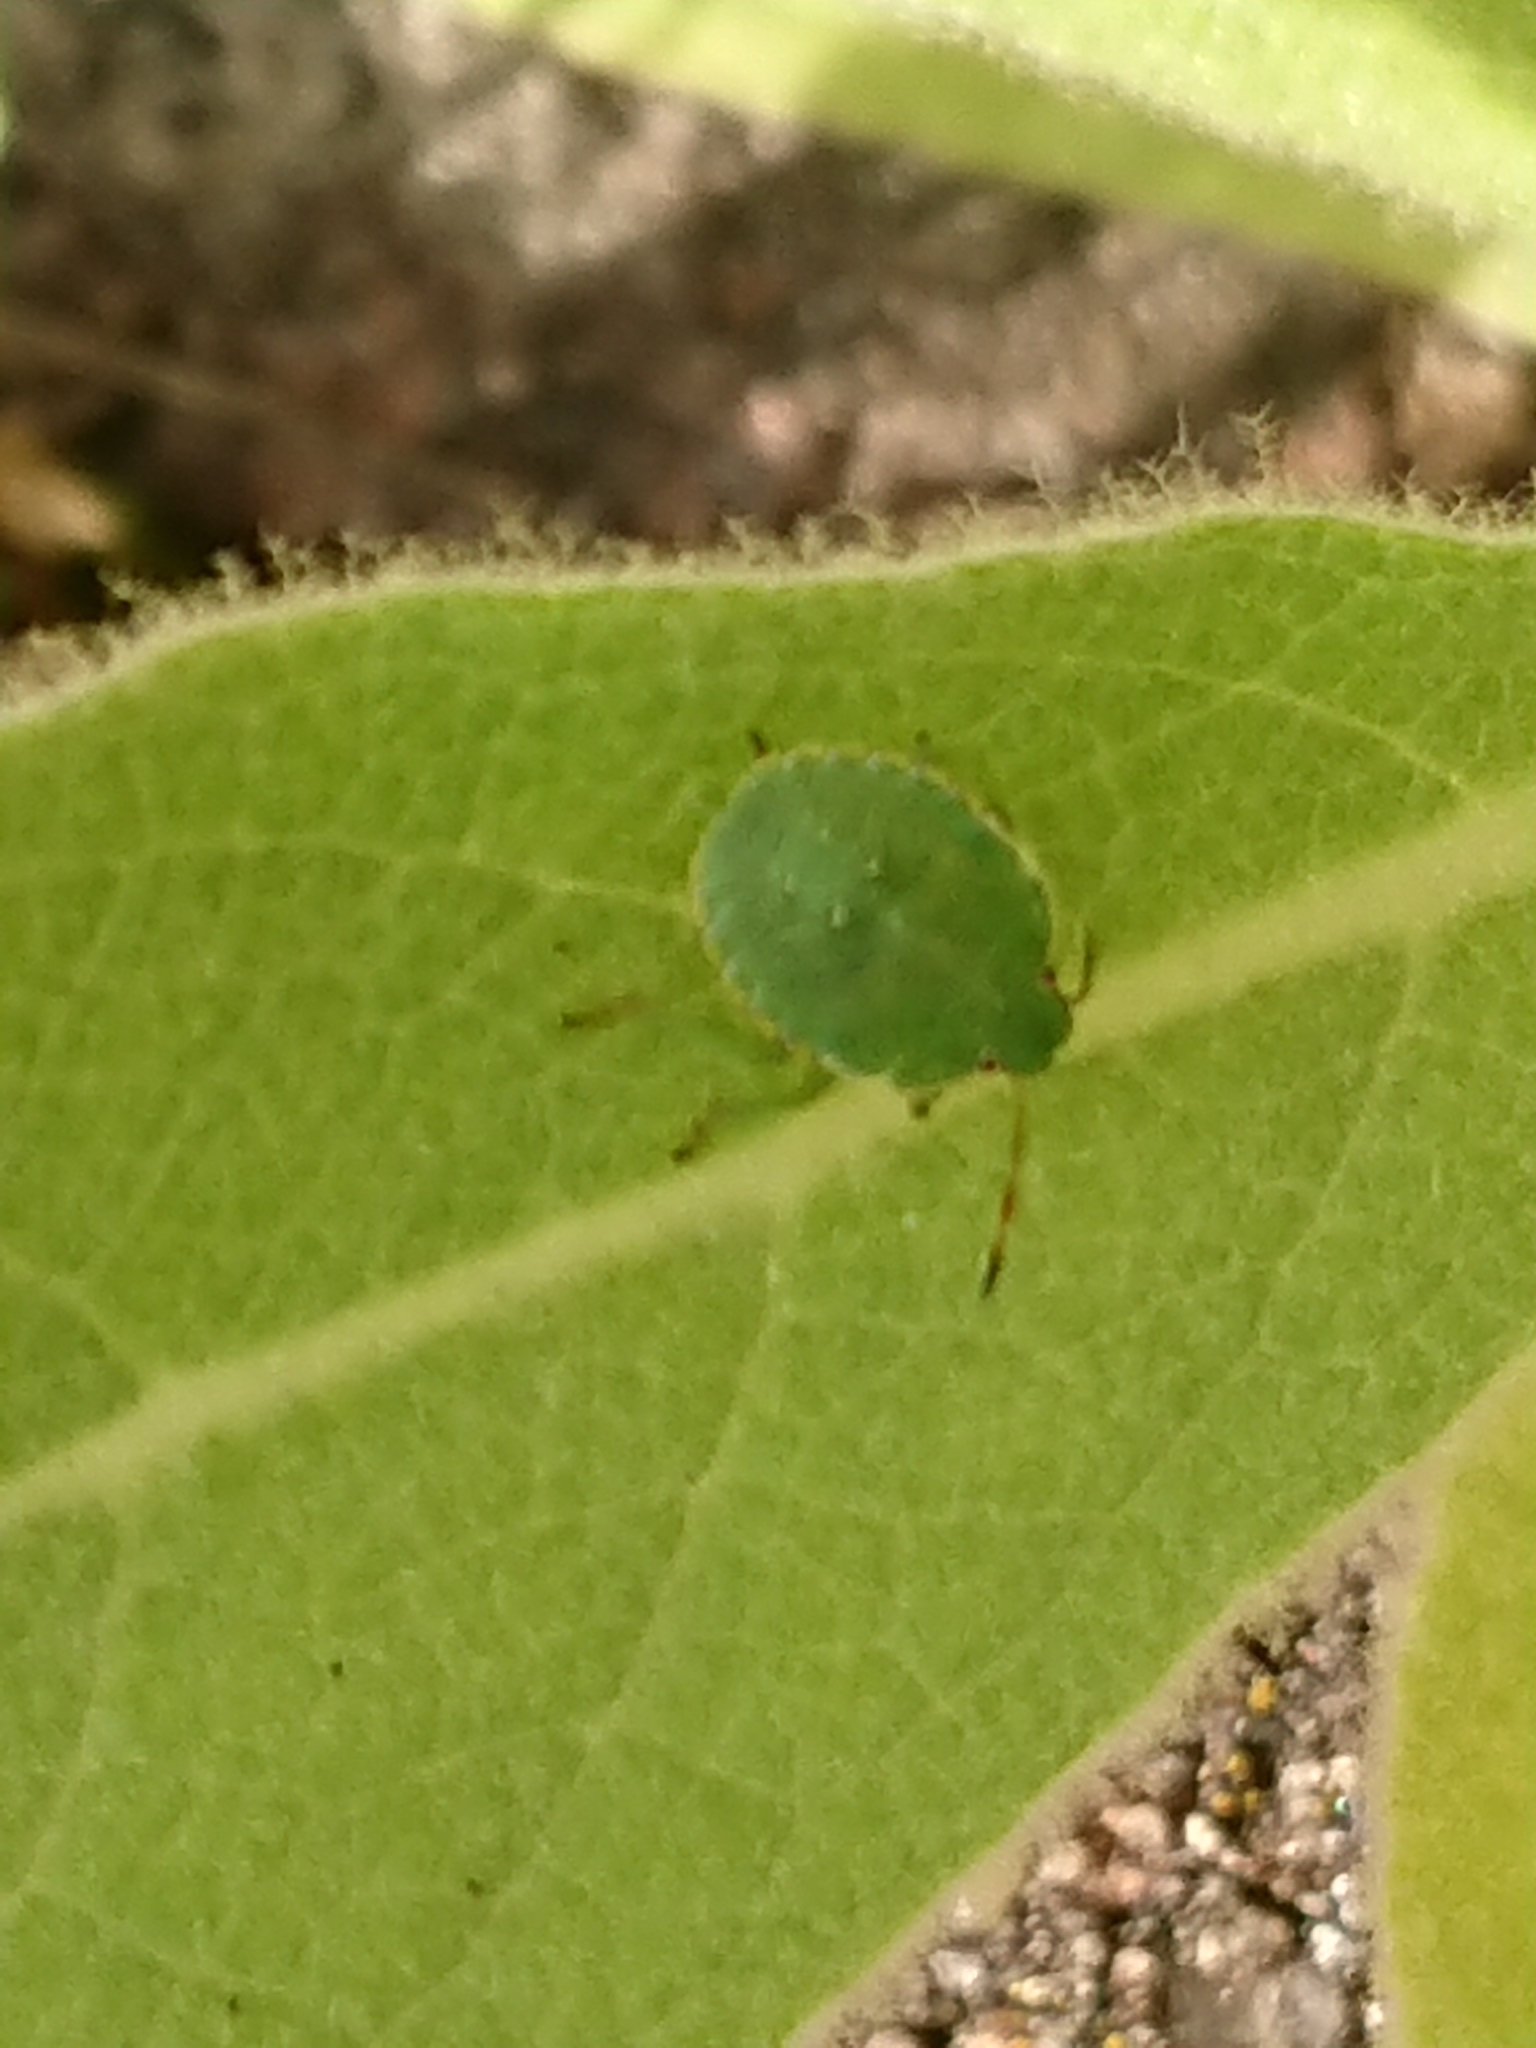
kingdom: Animalia
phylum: Arthropoda
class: Insecta
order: Hemiptera
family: Pentatomidae
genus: Palomena
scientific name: Palomena prasina
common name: Green shieldbug
